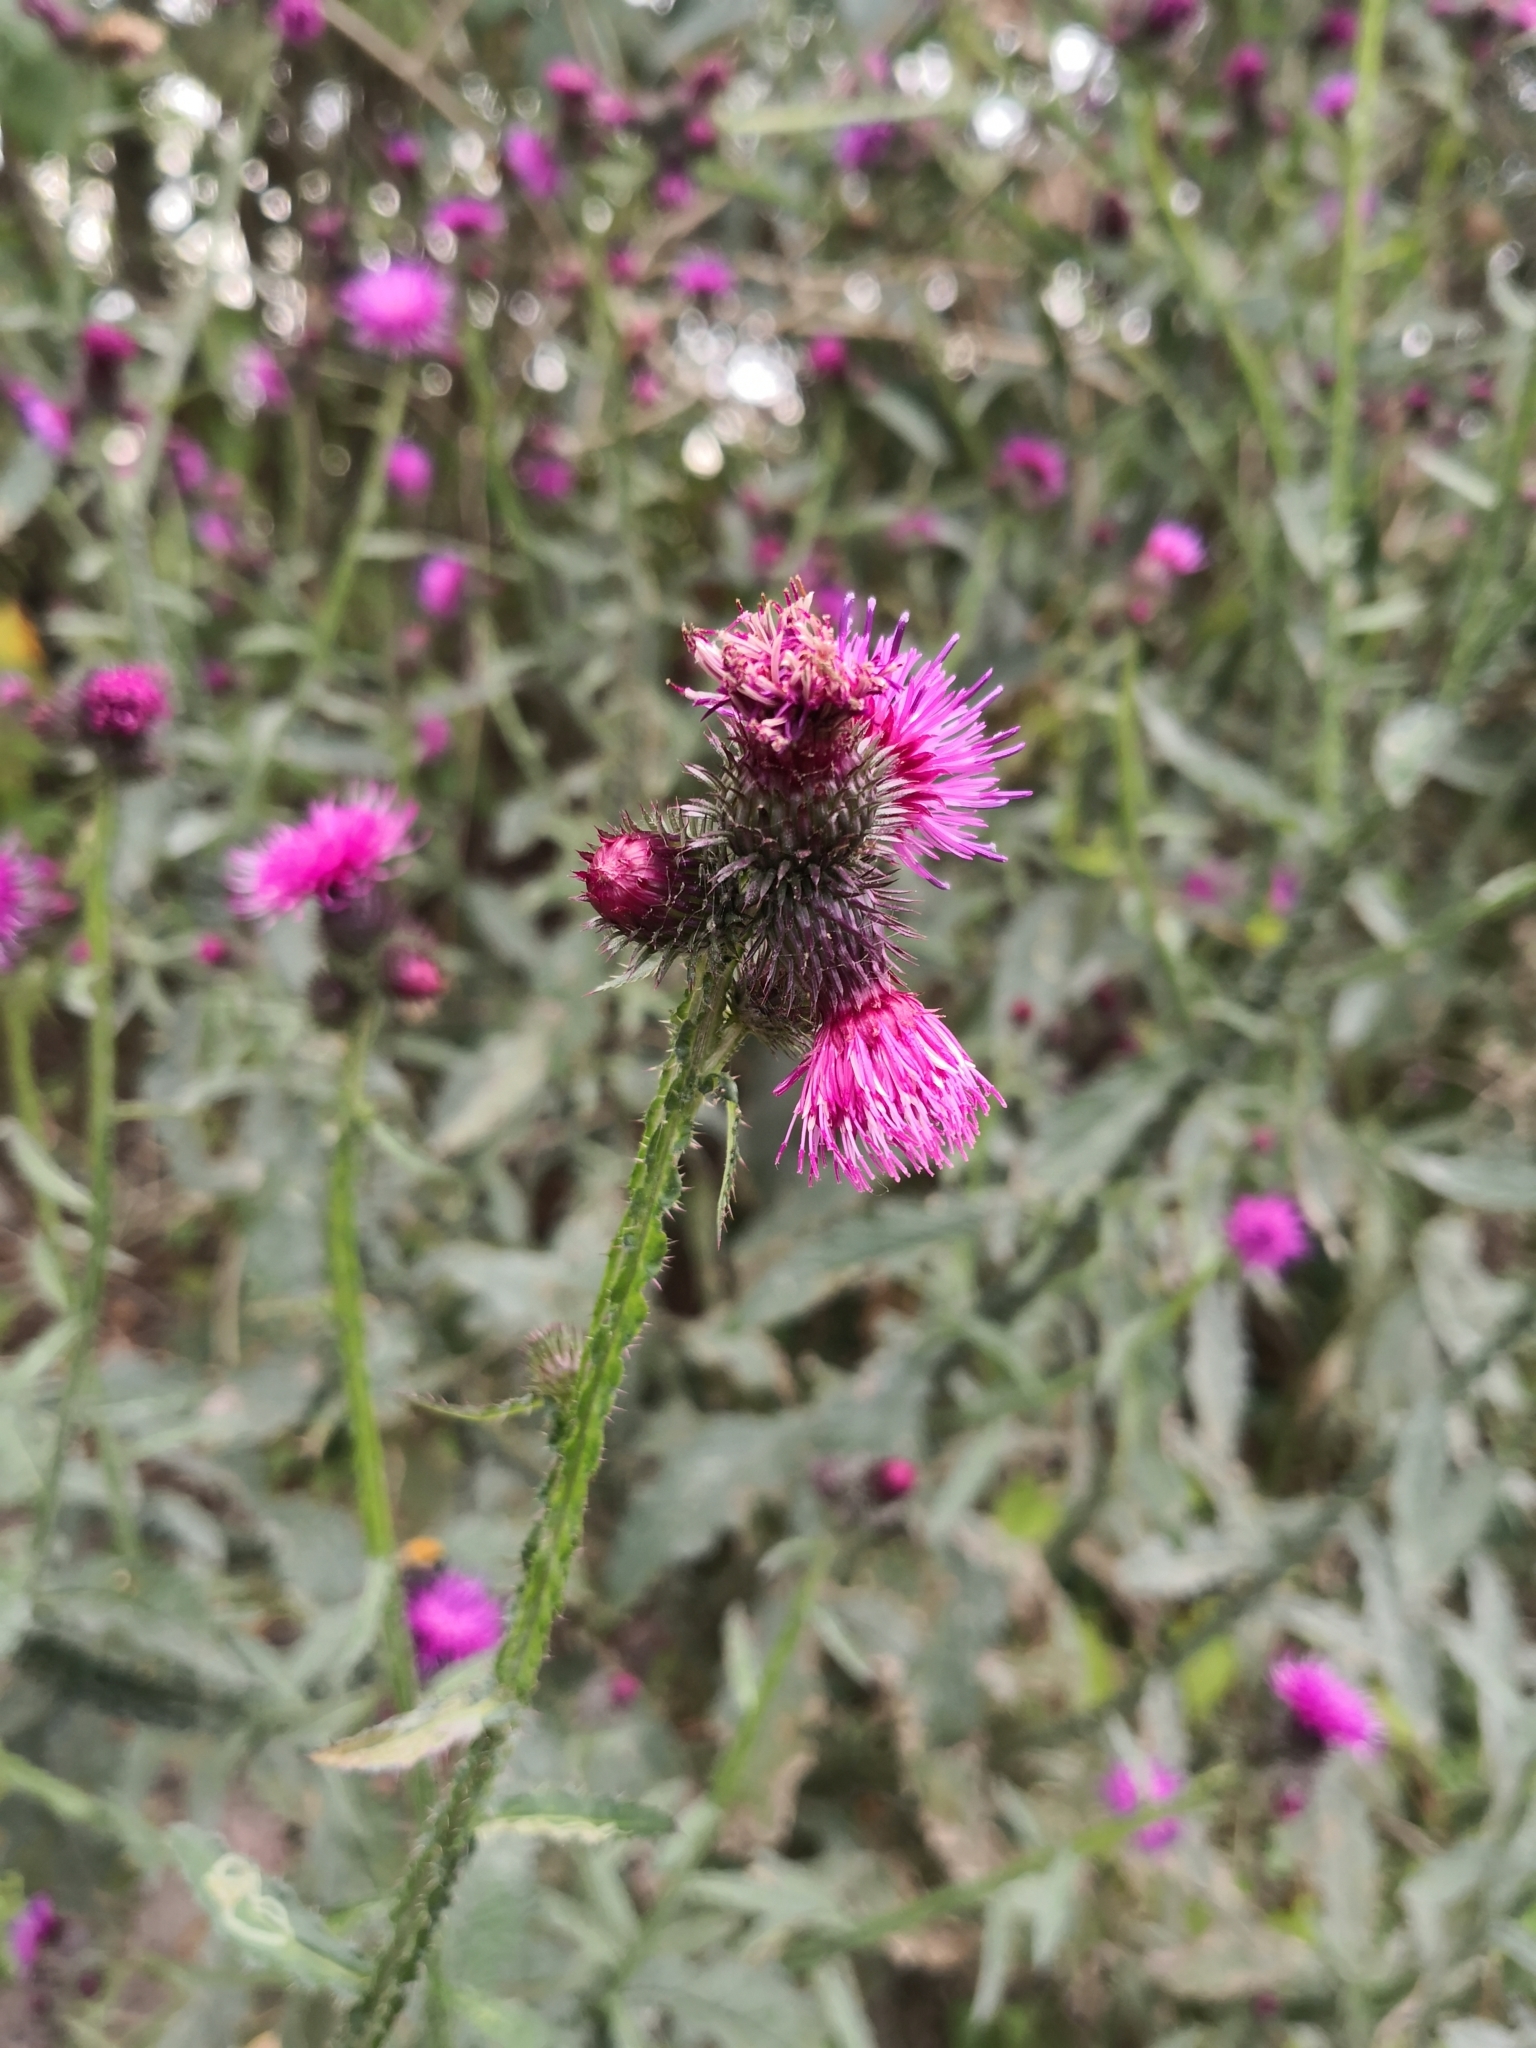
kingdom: Plantae
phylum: Tracheophyta
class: Magnoliopsida
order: Asterales
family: Asteraceae
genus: Carduus
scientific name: Carduus crispus
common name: Welted thistle
